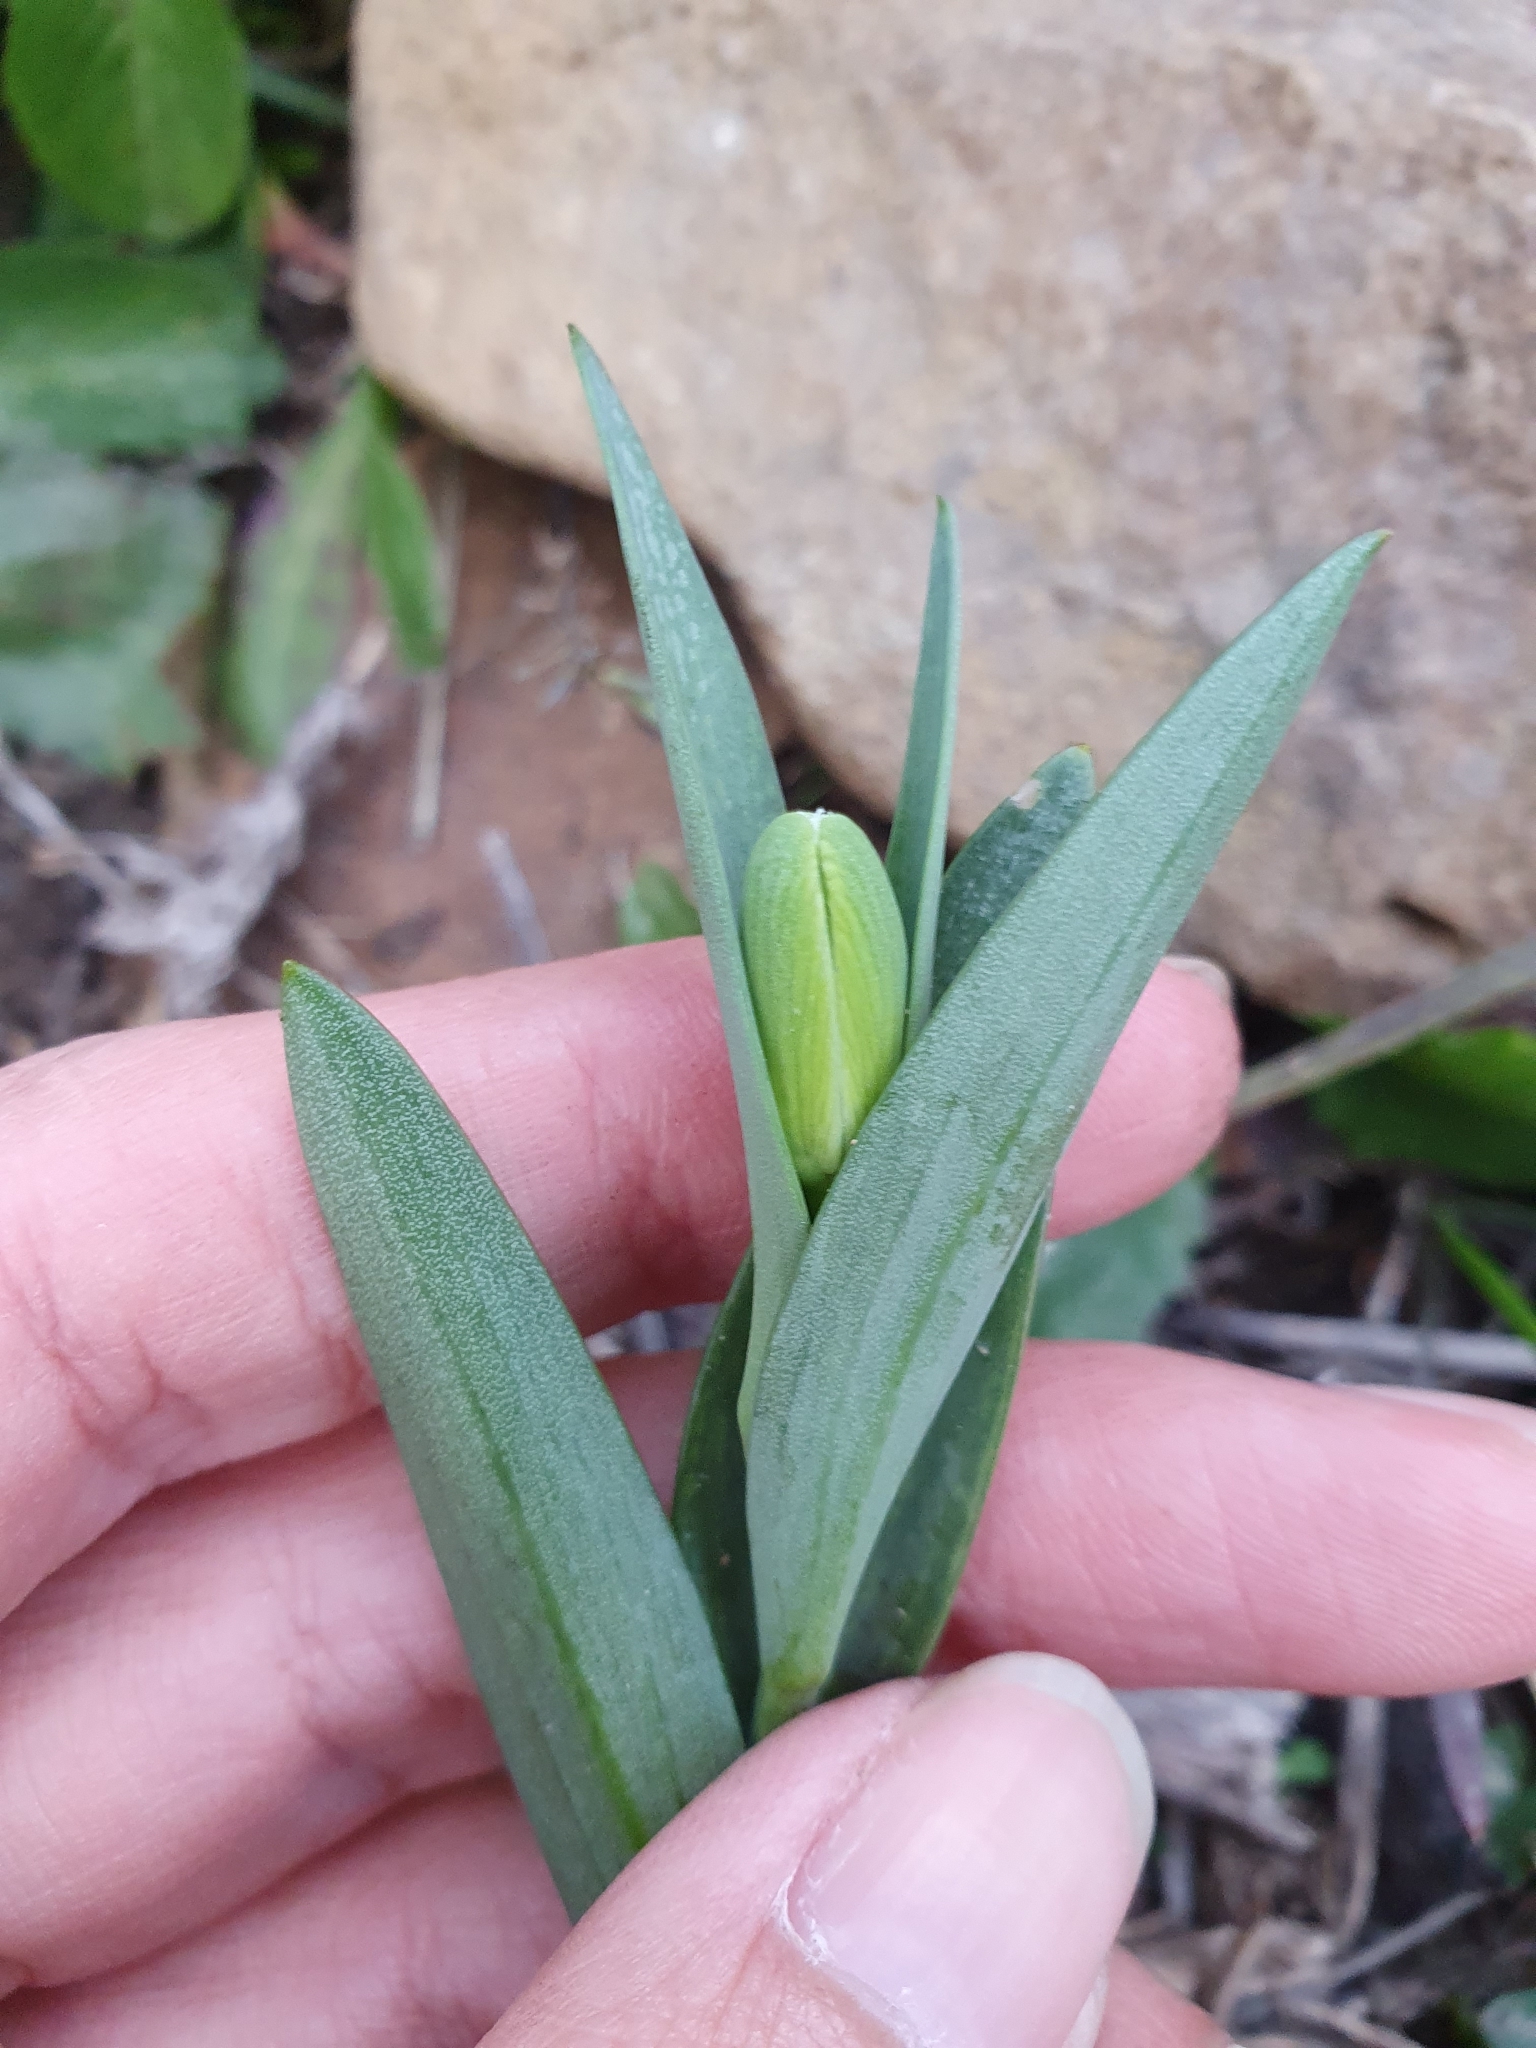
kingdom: Plantae
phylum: Tracheophyta
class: Liliopsida
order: Liliales
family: Liliaceae
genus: Fritillaria
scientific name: Fritillaria oranensis
